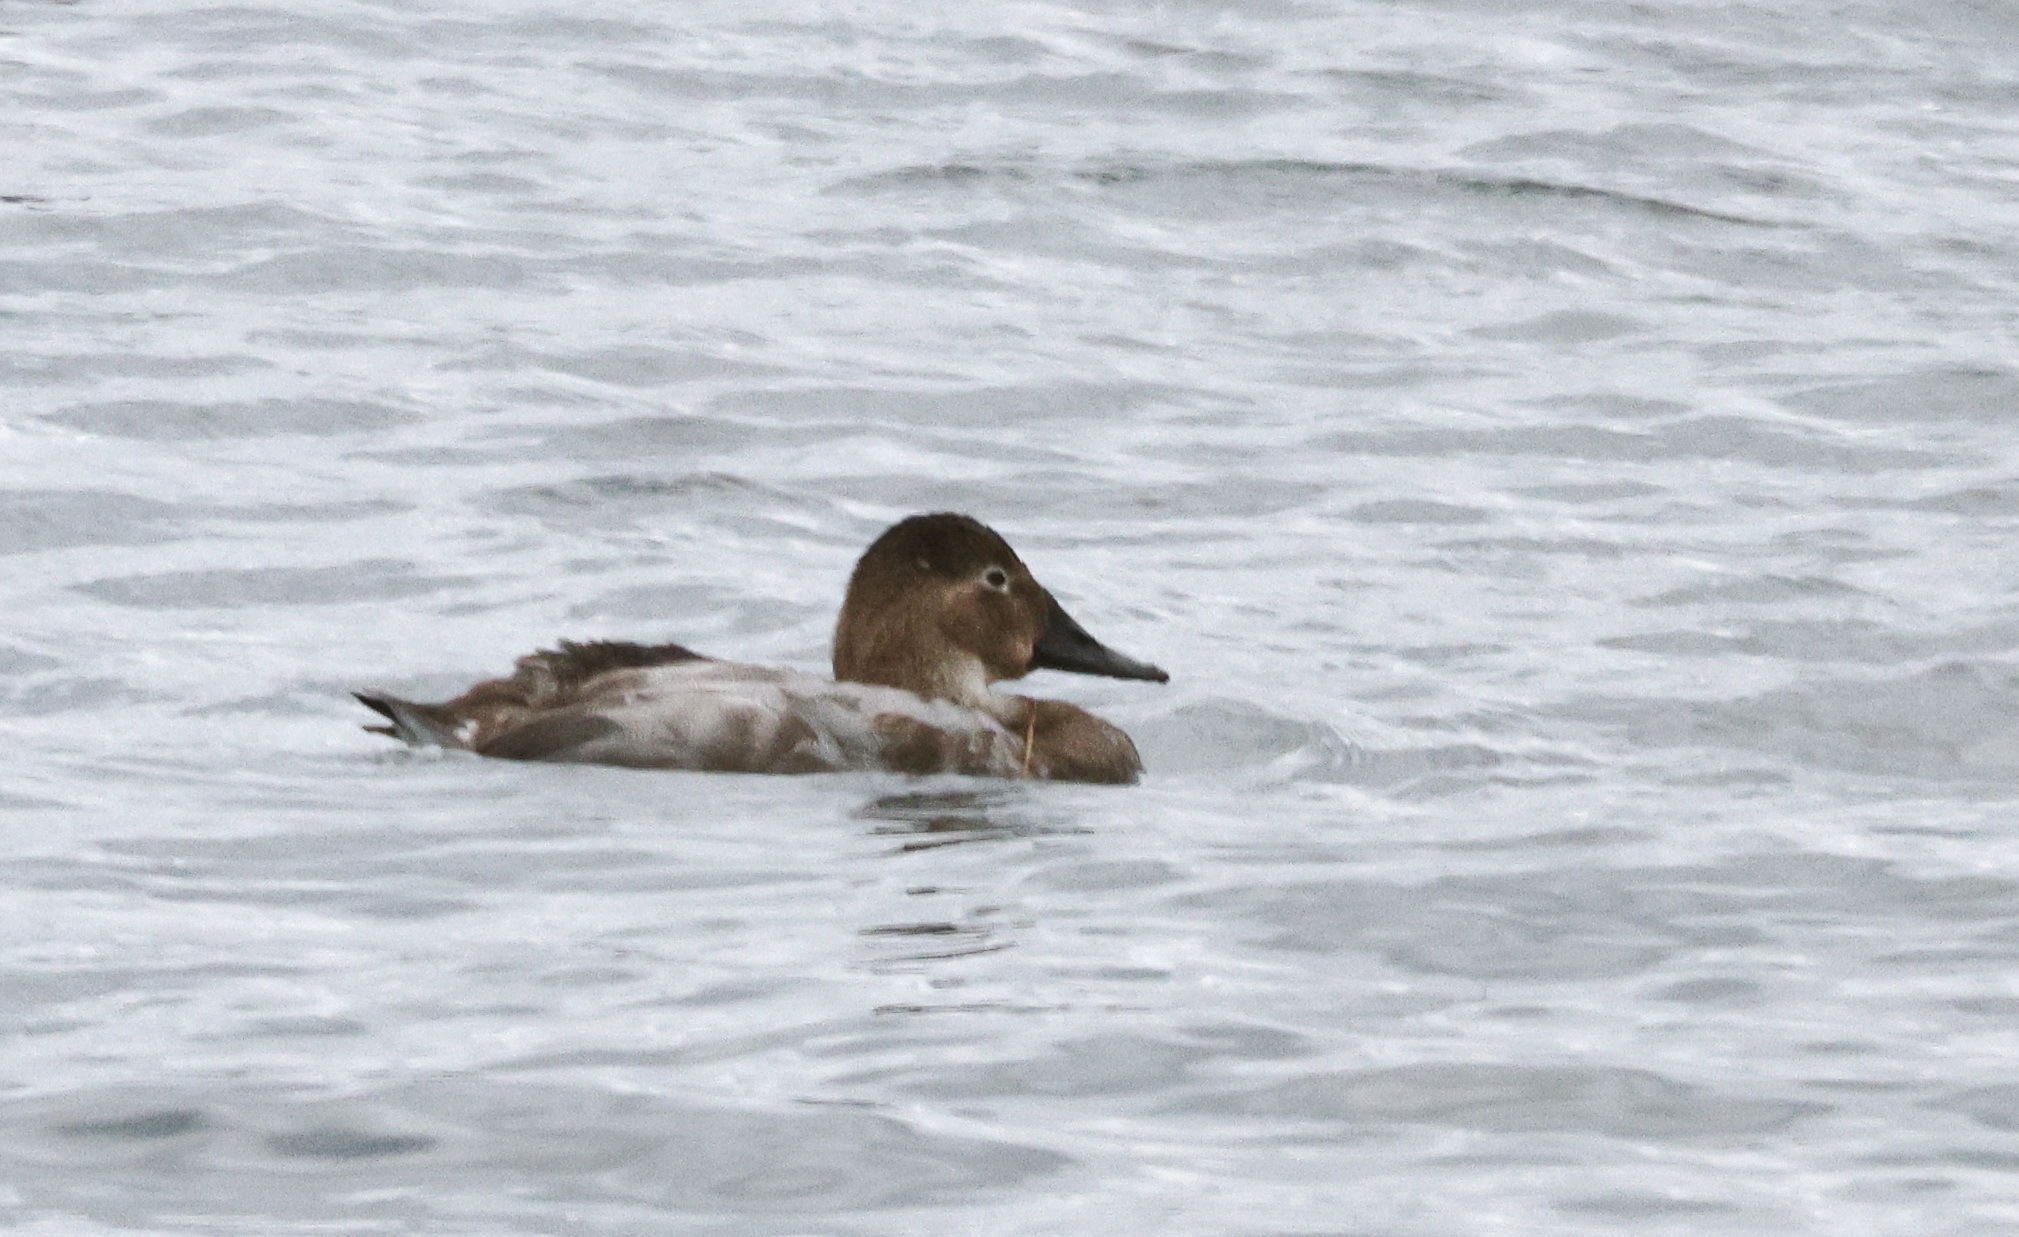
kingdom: Animalia
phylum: Chordata
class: Aves
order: Anseriformes
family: Anatidae
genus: Aythya
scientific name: Aythya valisineria
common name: Canvasback
